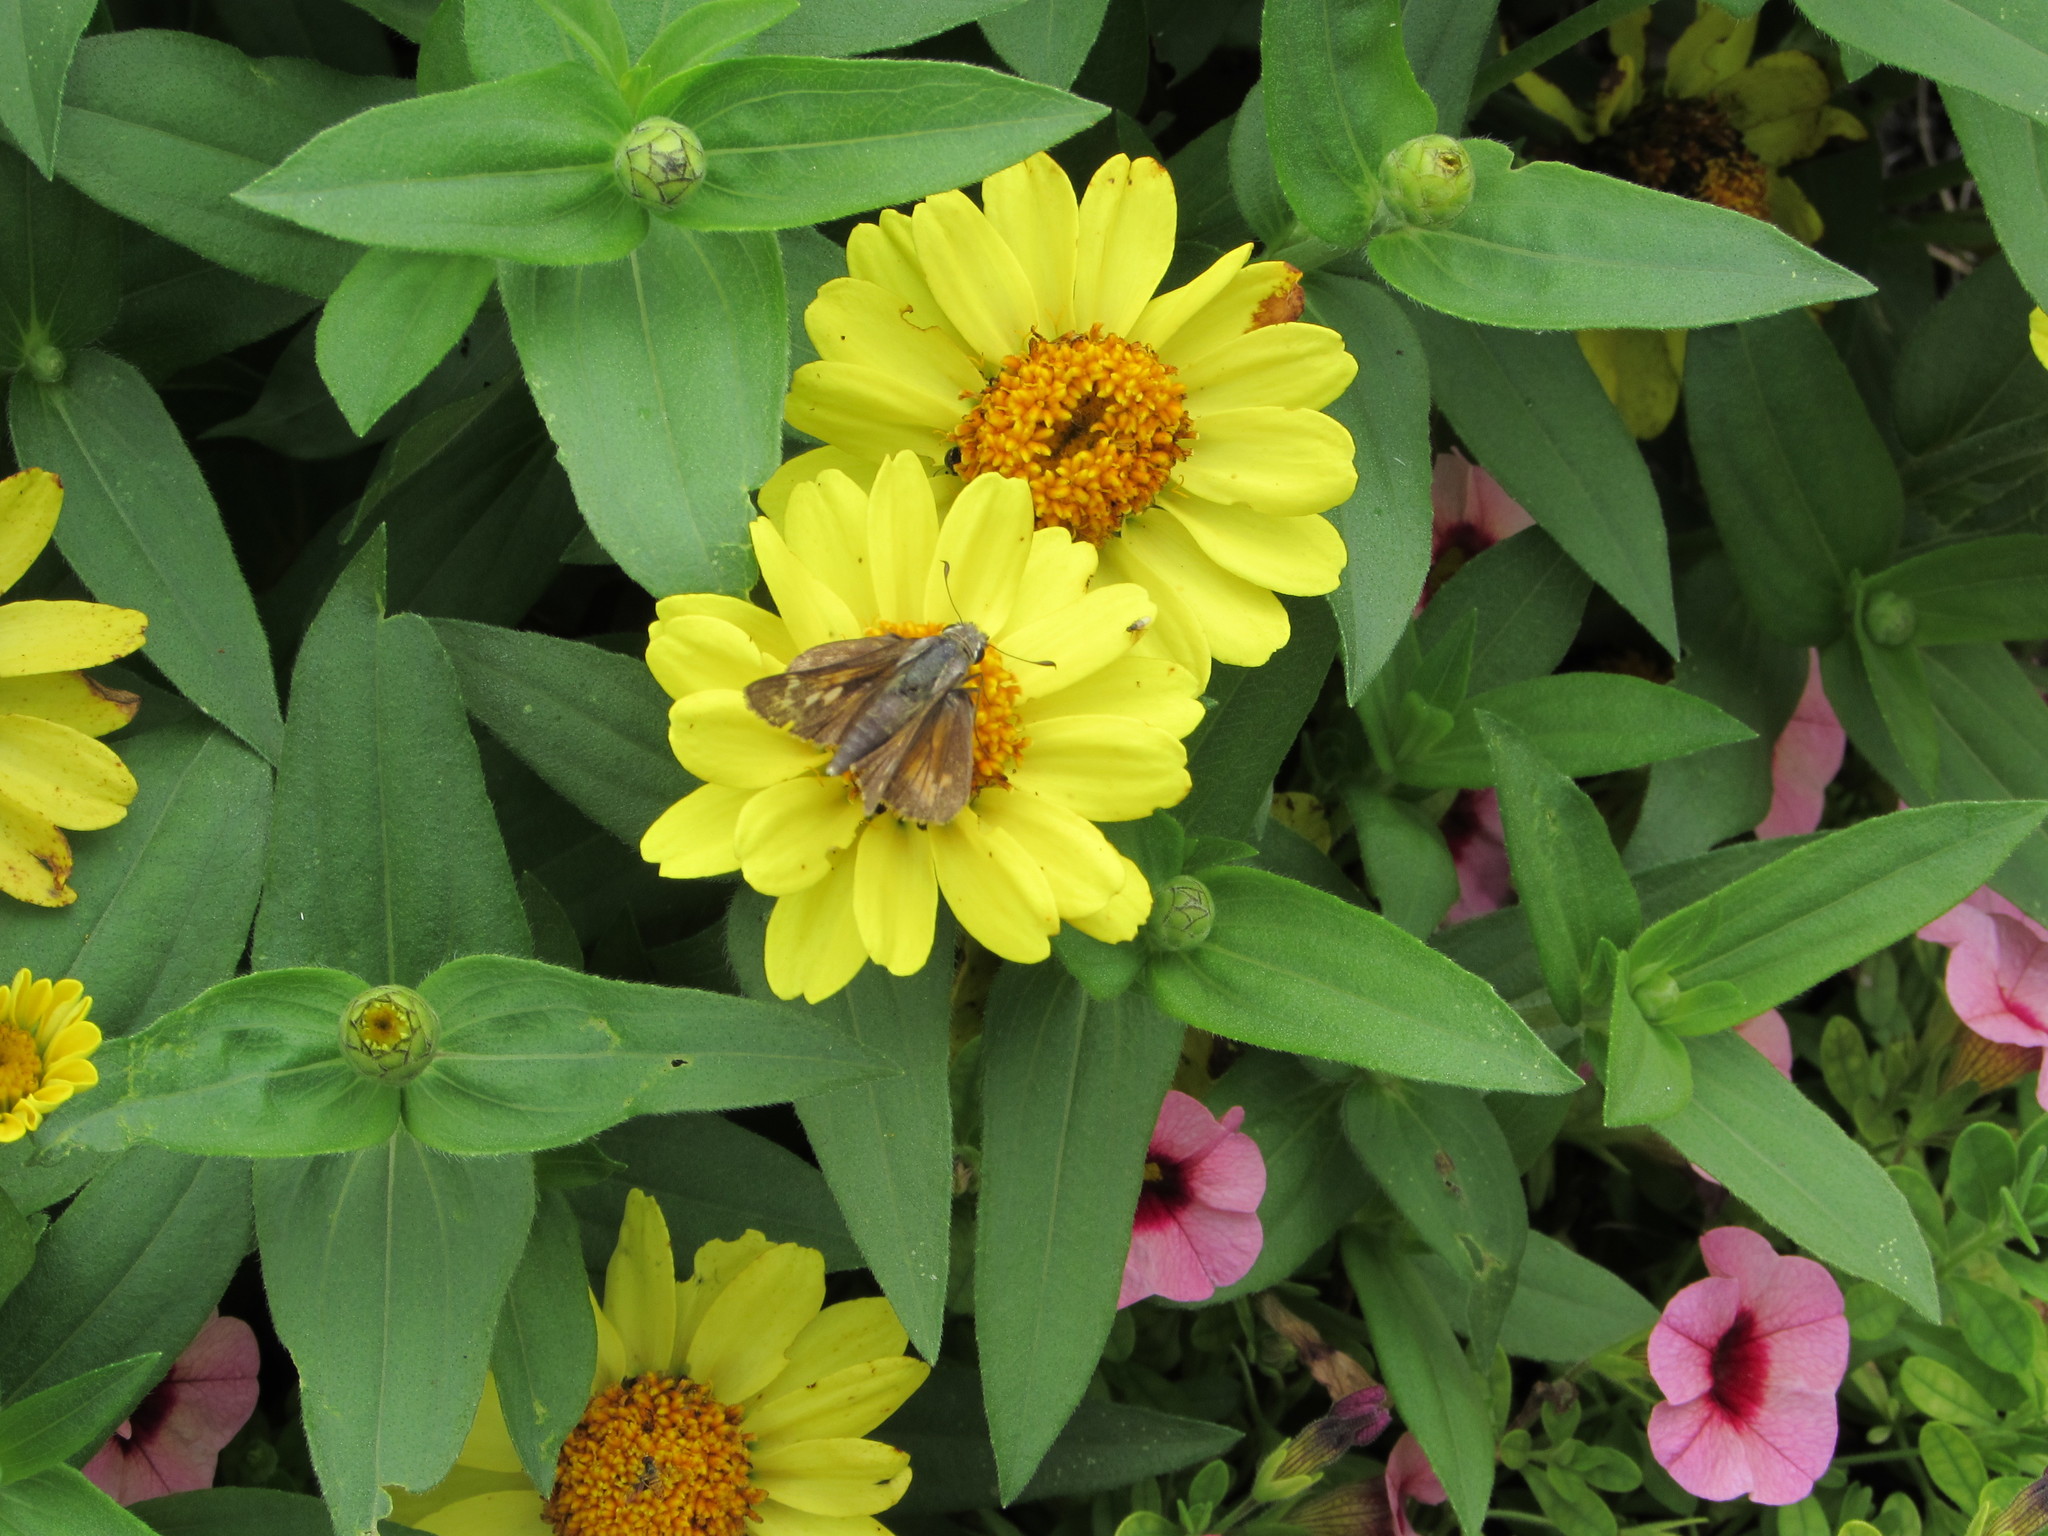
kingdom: Animalia
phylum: Arthropoda
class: Insecta
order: Lepidoptera
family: Hesperiidae
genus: Atalopedes
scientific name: Atalopedes
